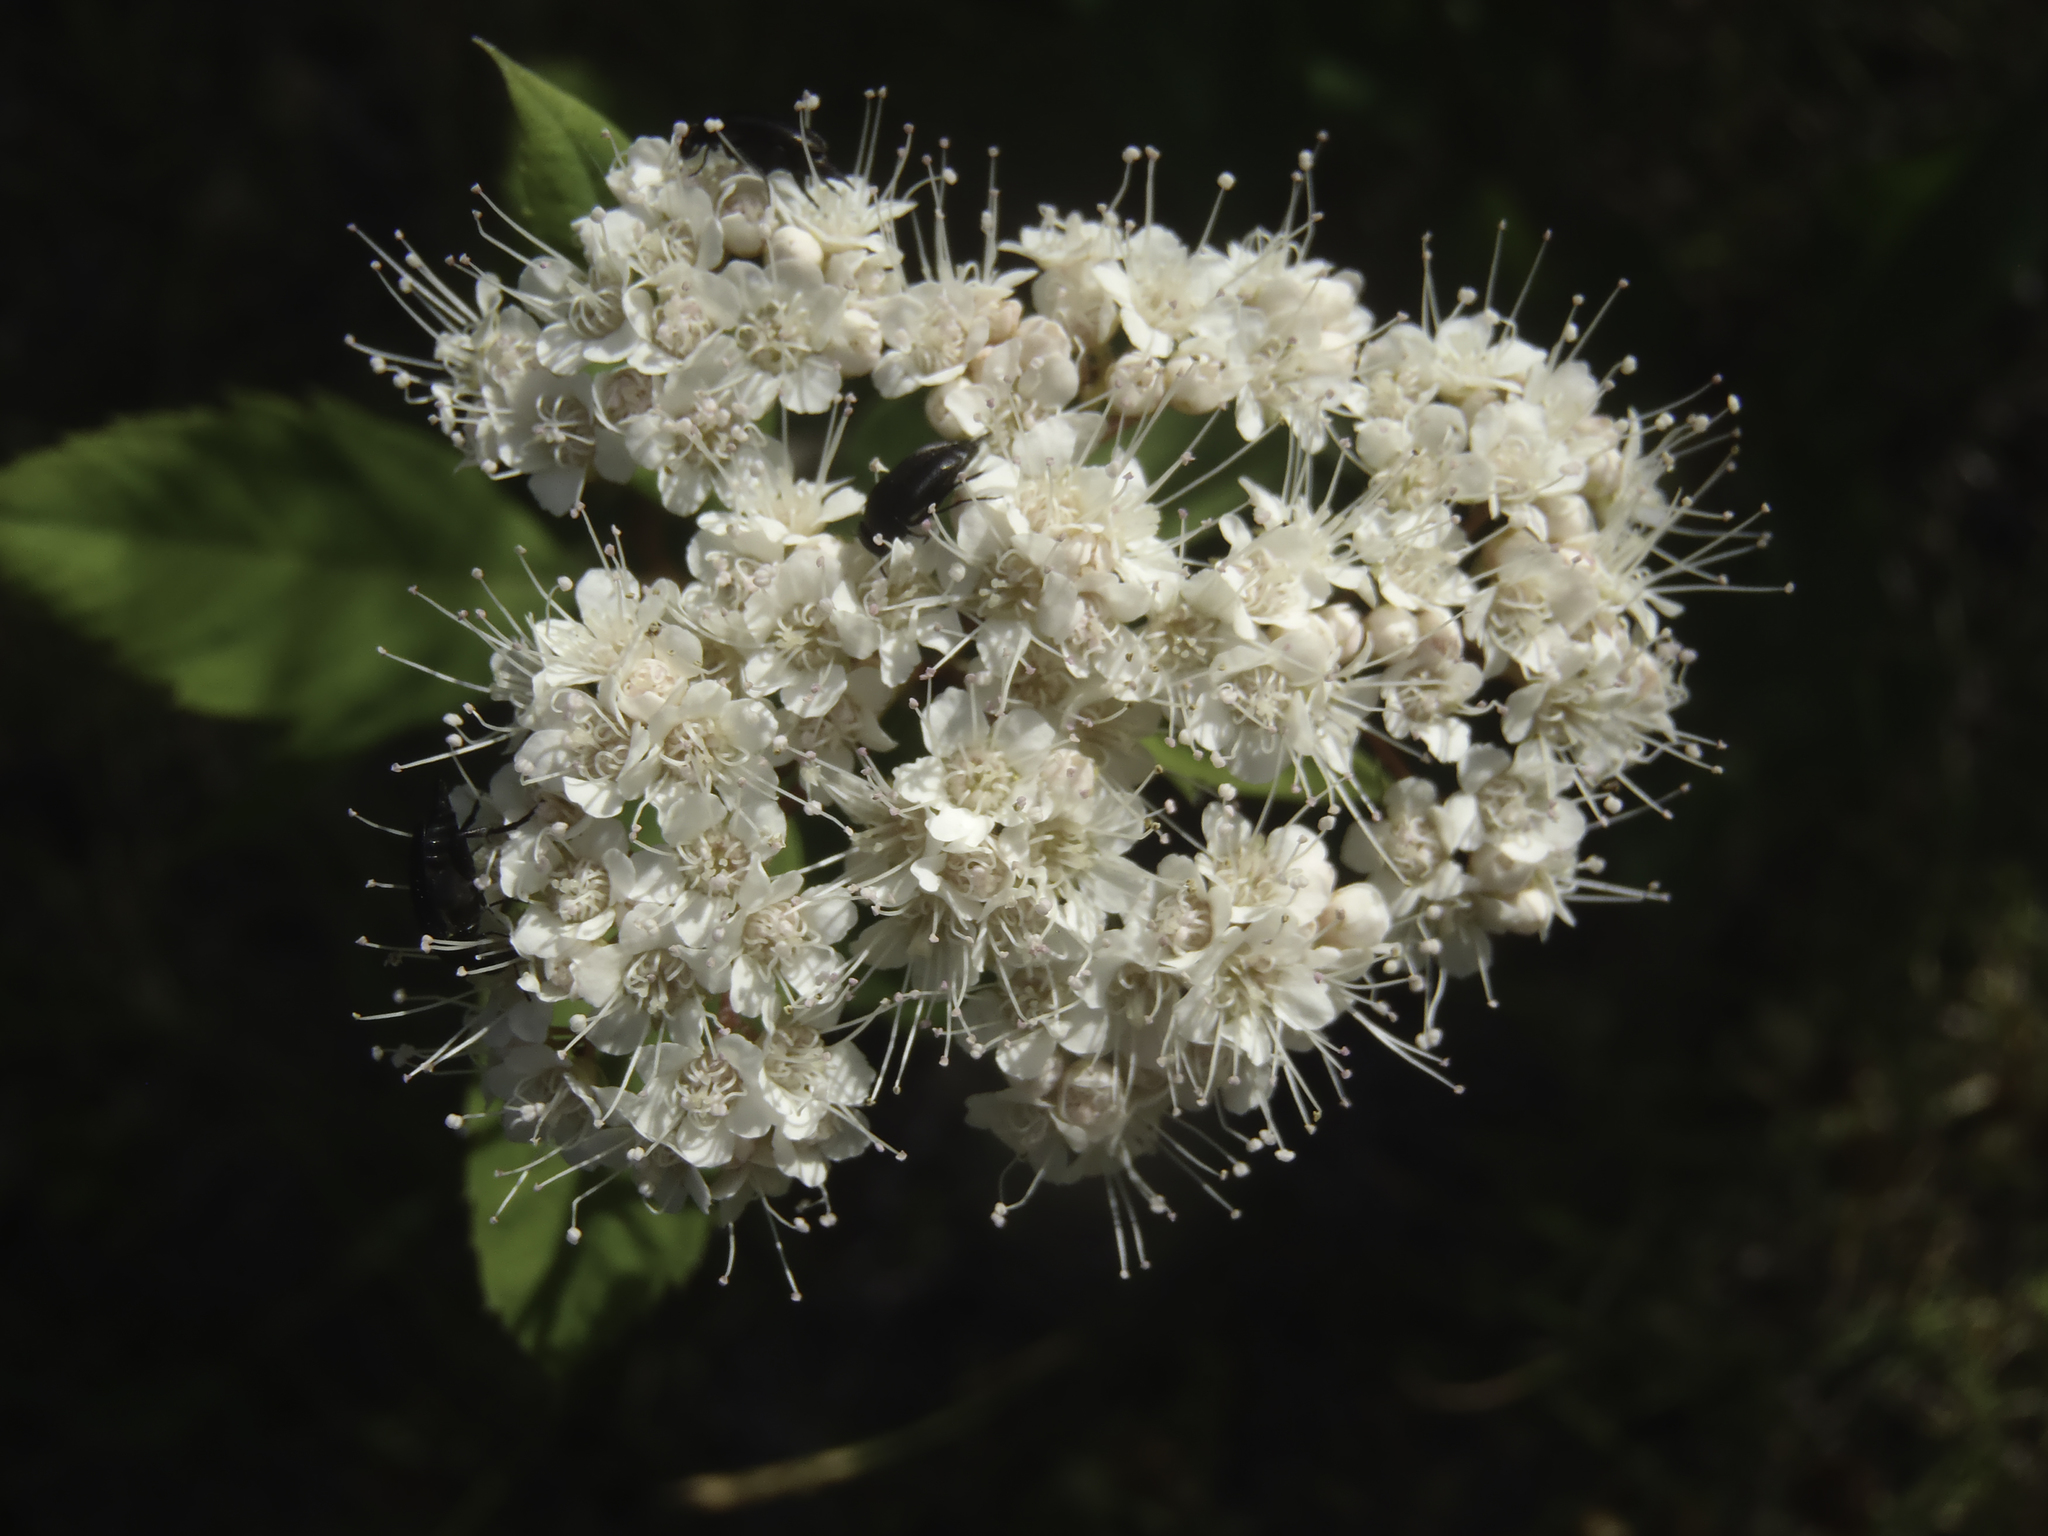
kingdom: Plantae
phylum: Tracheophyta
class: Magnoliopsida
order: Rosales
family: Rosaceae
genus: Spiraea
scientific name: Spiraea lucida
